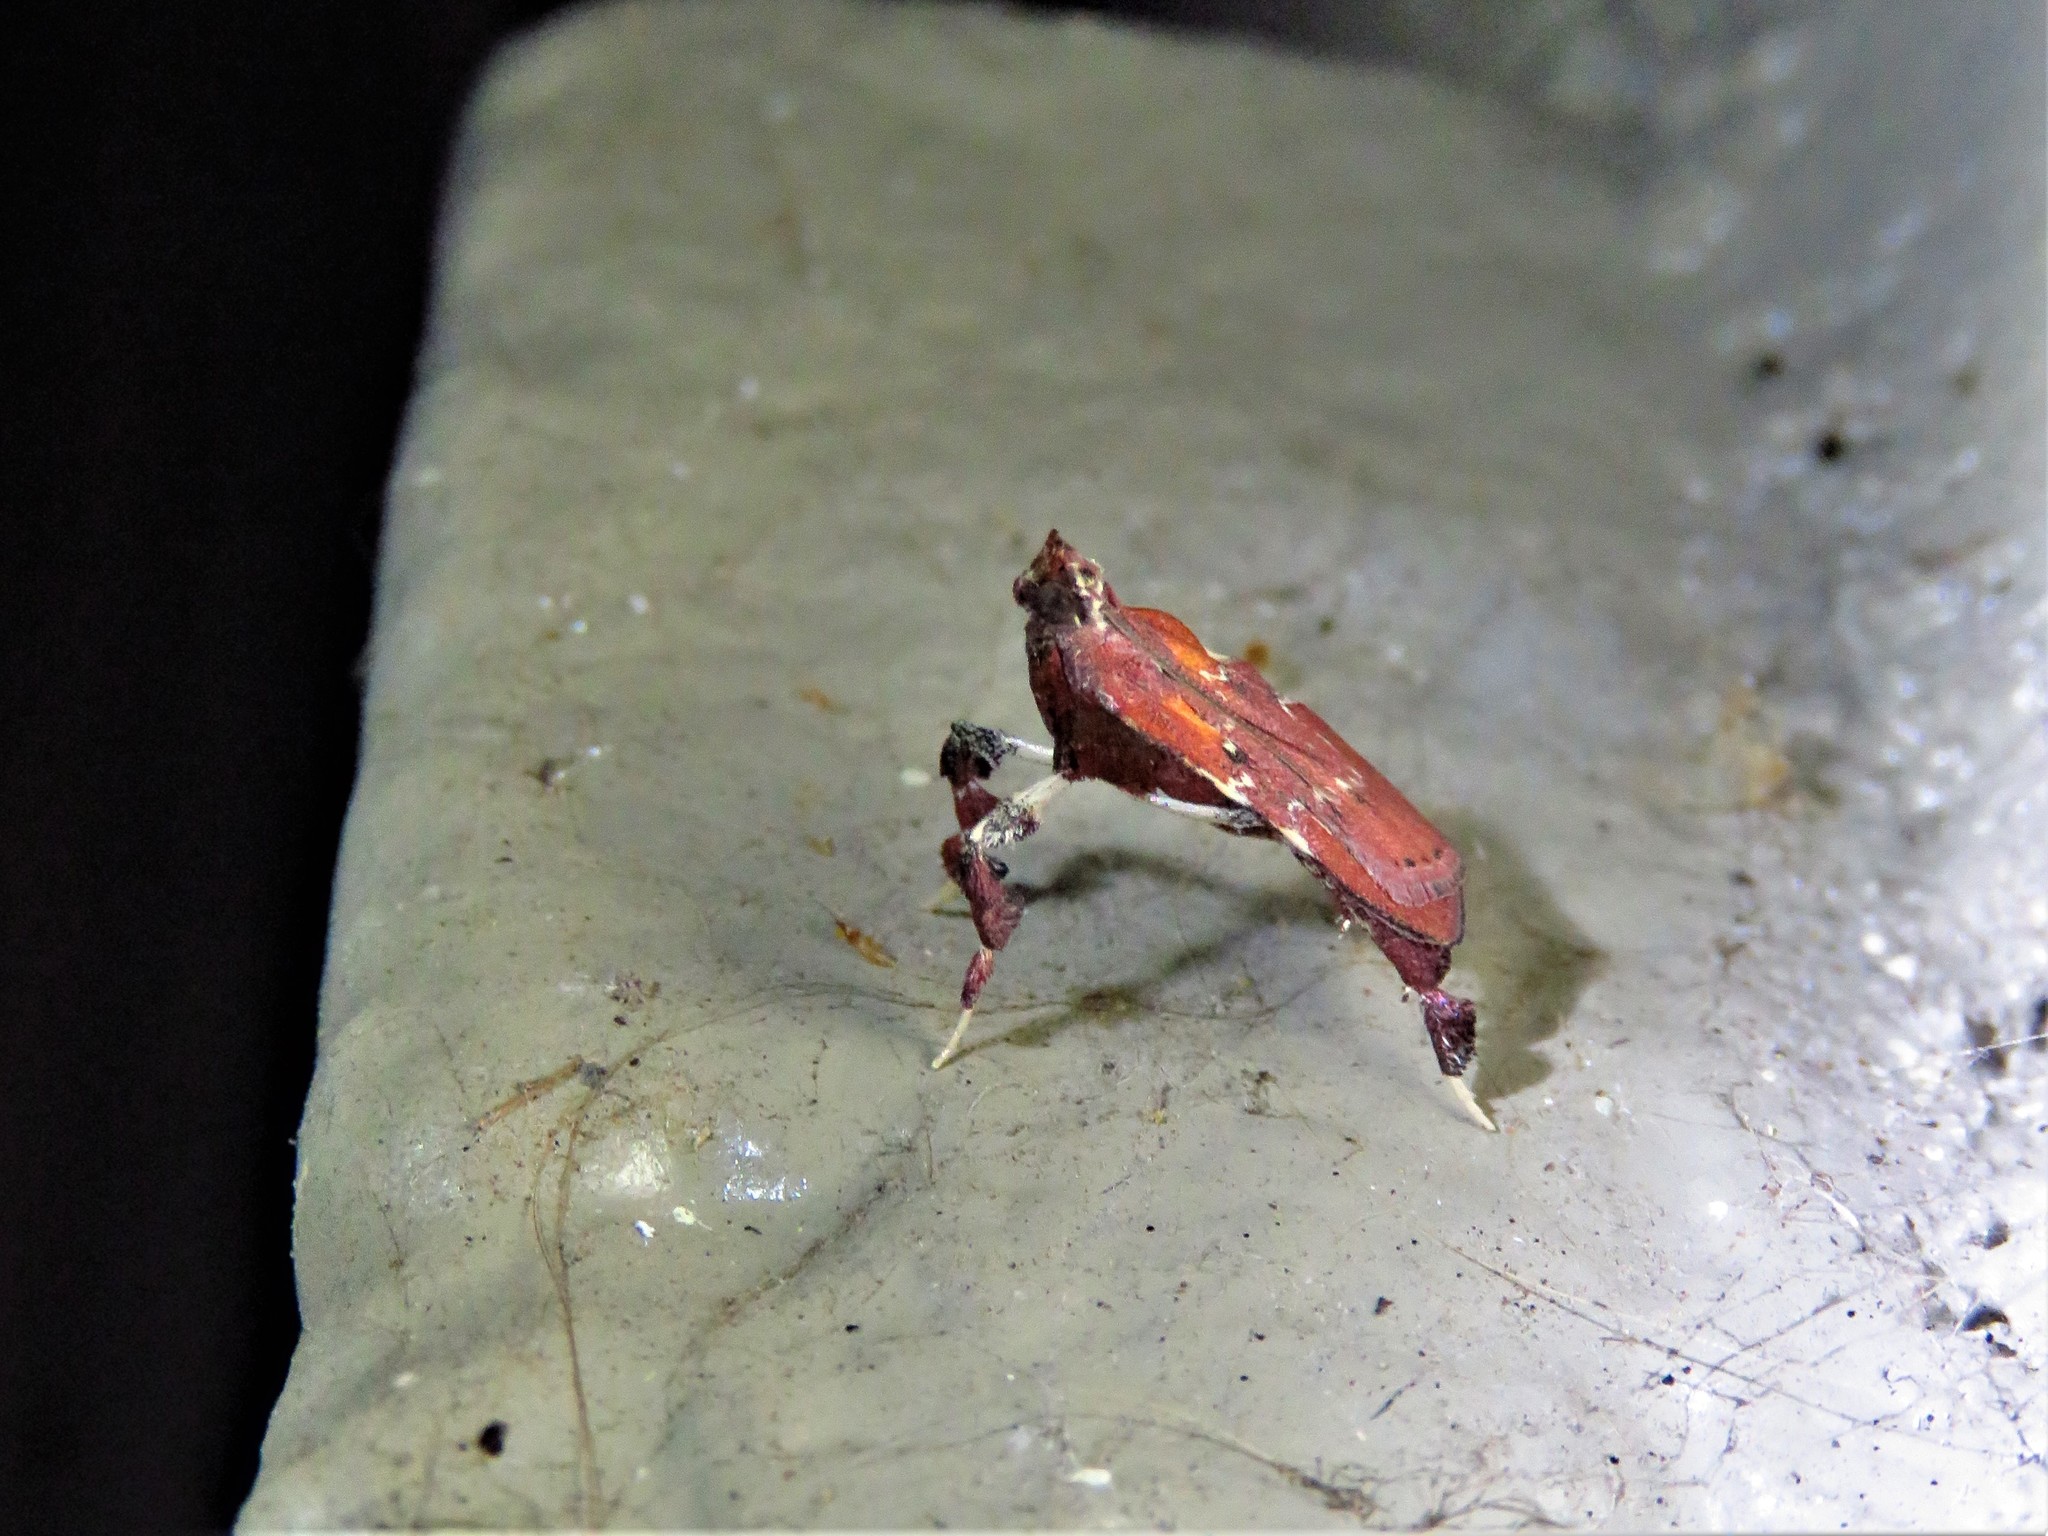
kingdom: Animalia
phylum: Arthropoda
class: Insecta
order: Lepidoptera
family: Pyralidae
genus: Galasa
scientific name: Galasa nigrinodis
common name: Boxwood leaftier moth
